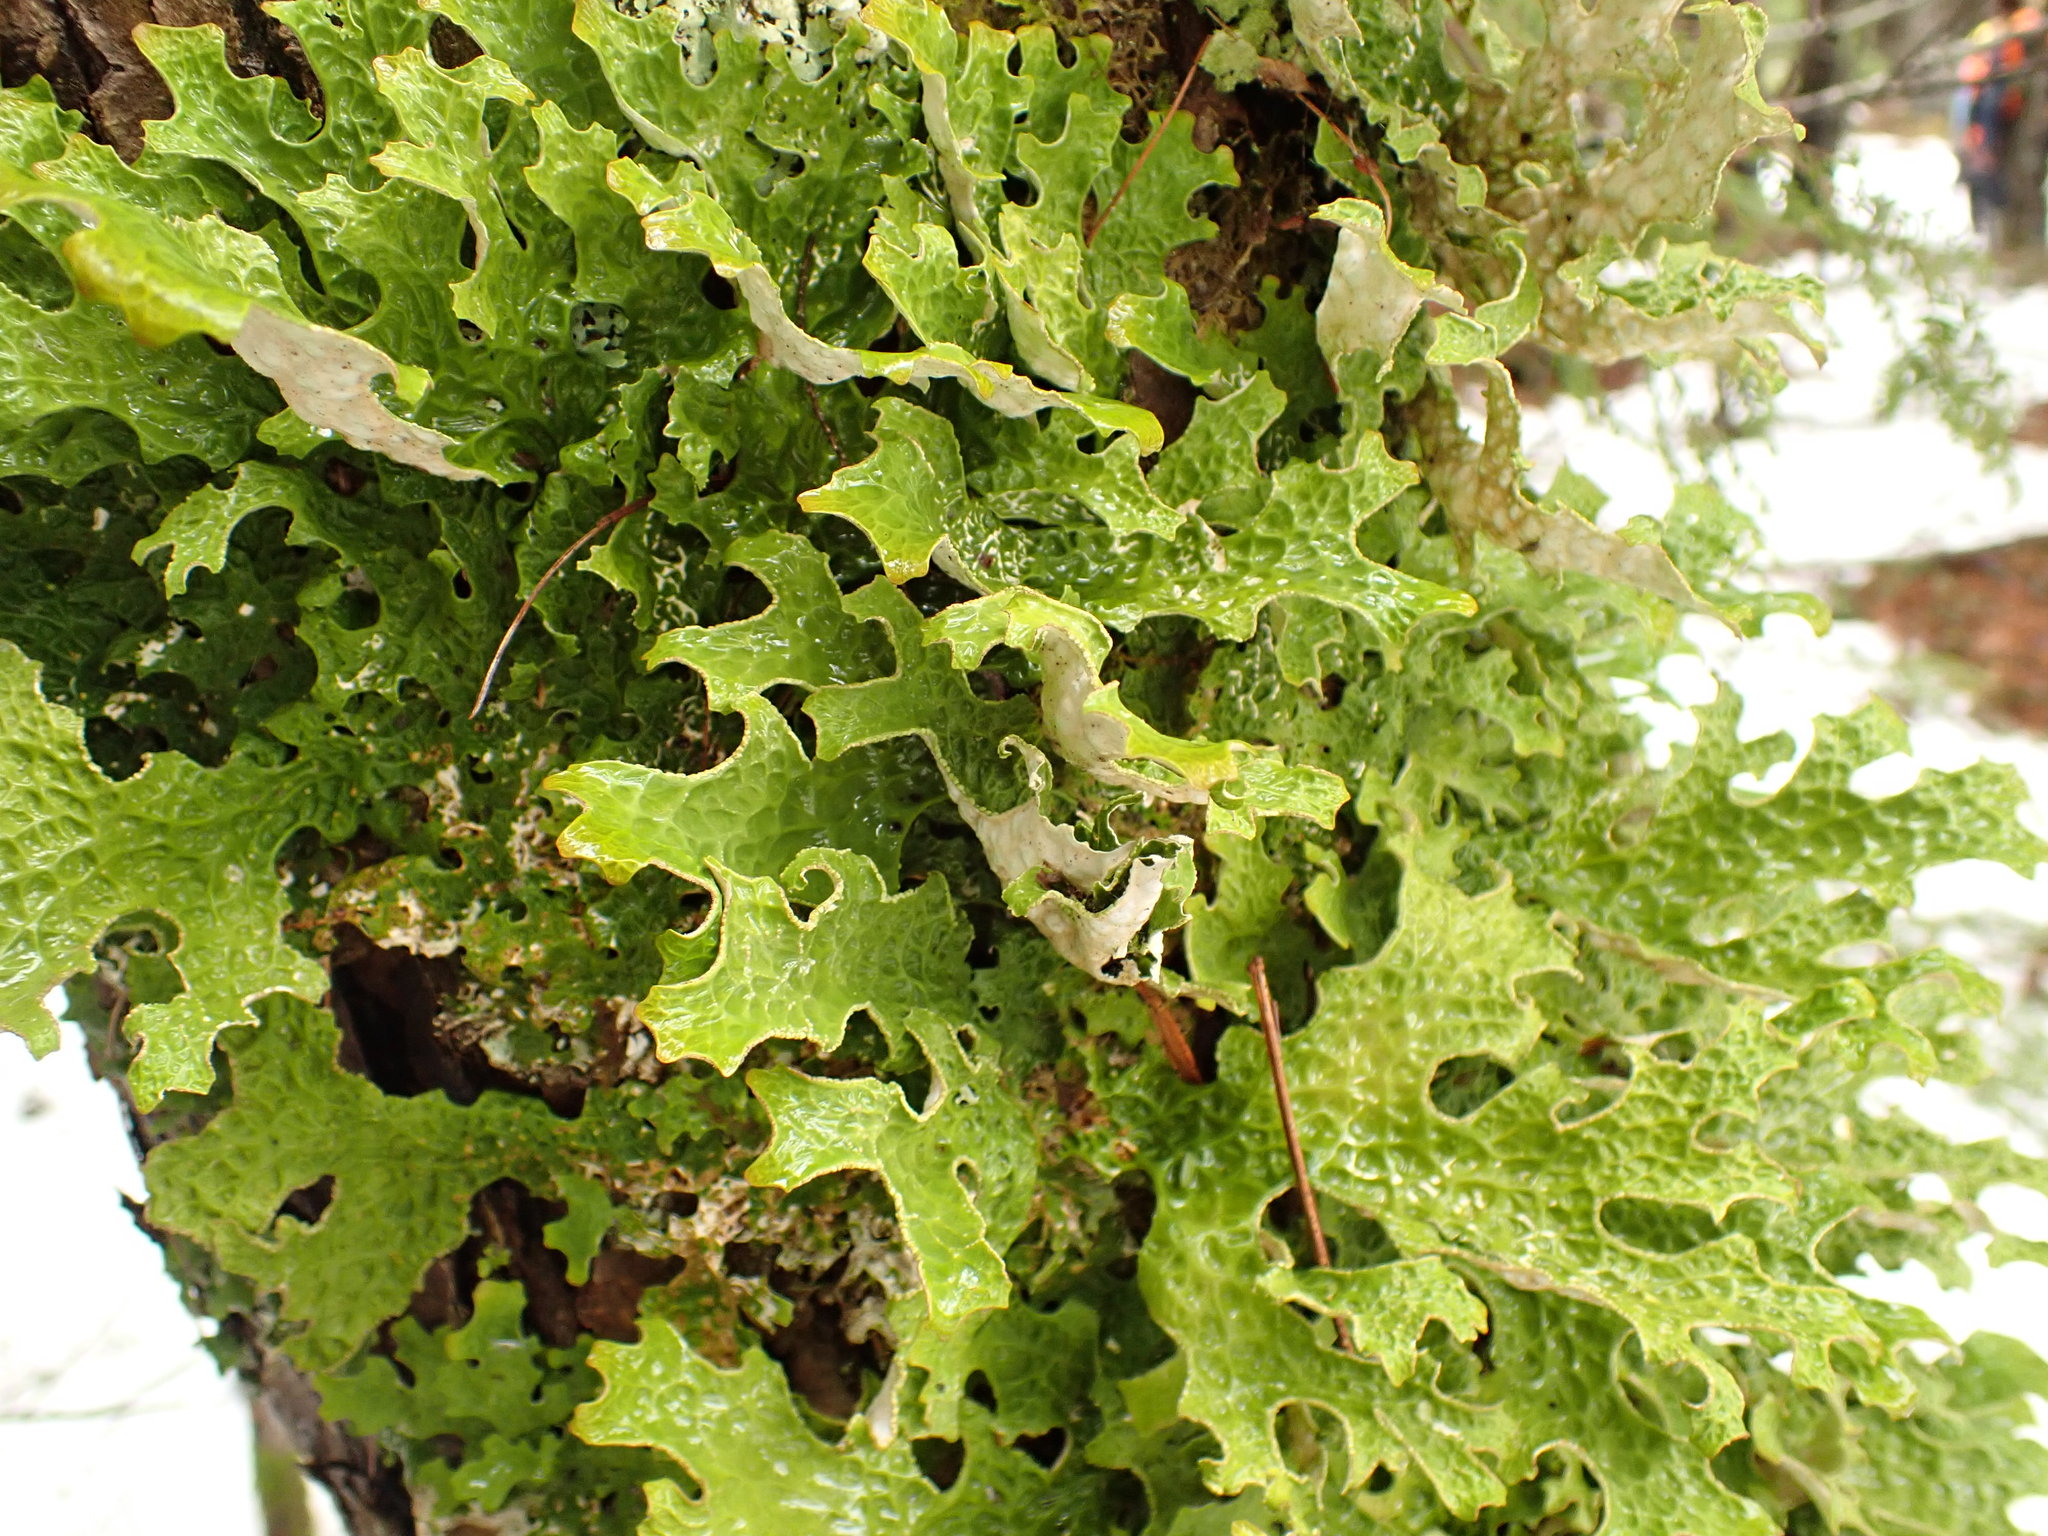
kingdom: Fungi
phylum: Ascomycota
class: Lecanoromycetes
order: Peltigerales
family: Lobariaceae
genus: Lobaria
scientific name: Lobaria pulmonaria
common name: Lungwort
